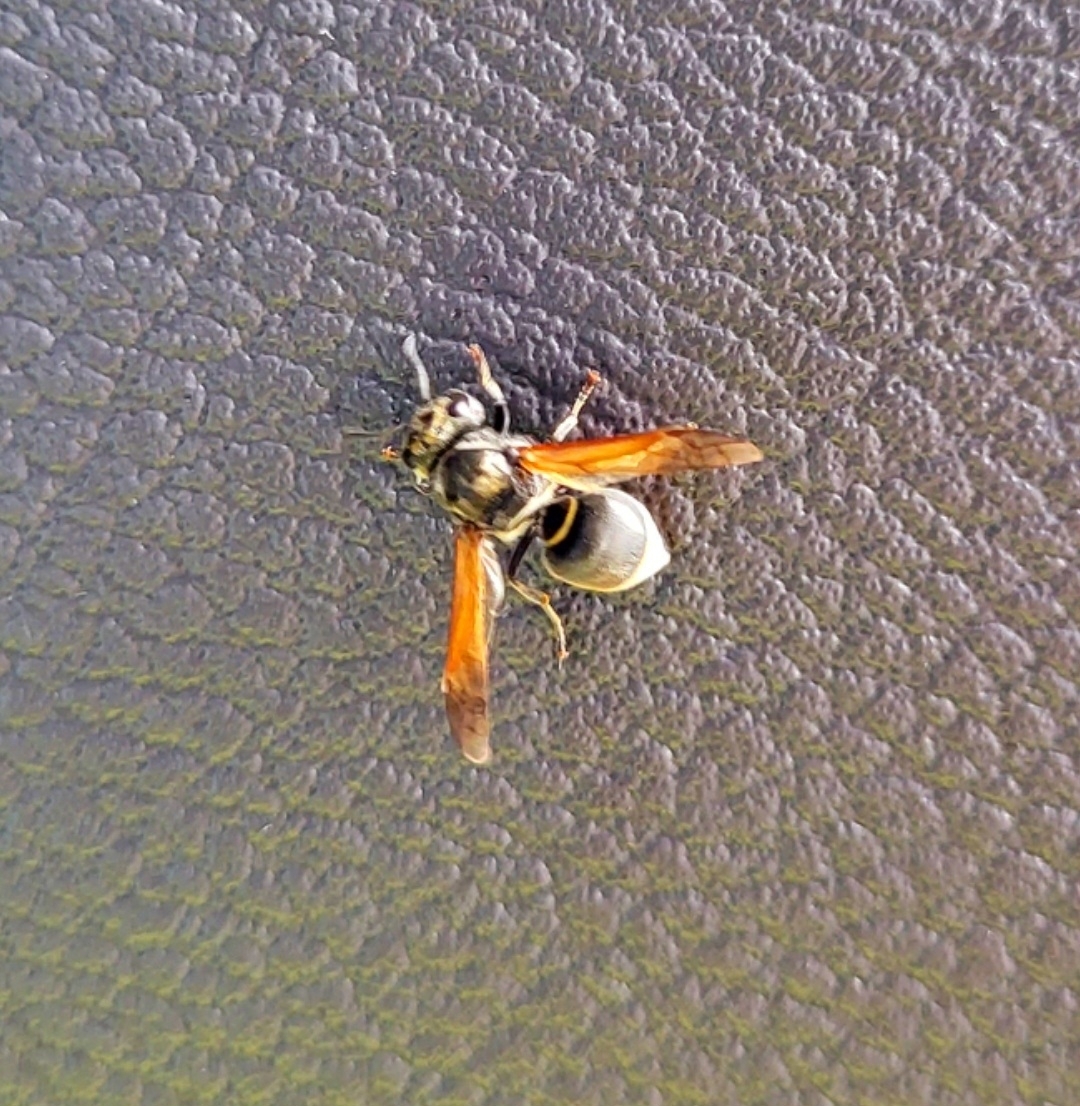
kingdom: Animalia
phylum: Arthropoda
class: Insecta
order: Hymenoptera
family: Vespidae
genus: Brachygastra
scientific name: Brachygastra mellifica
